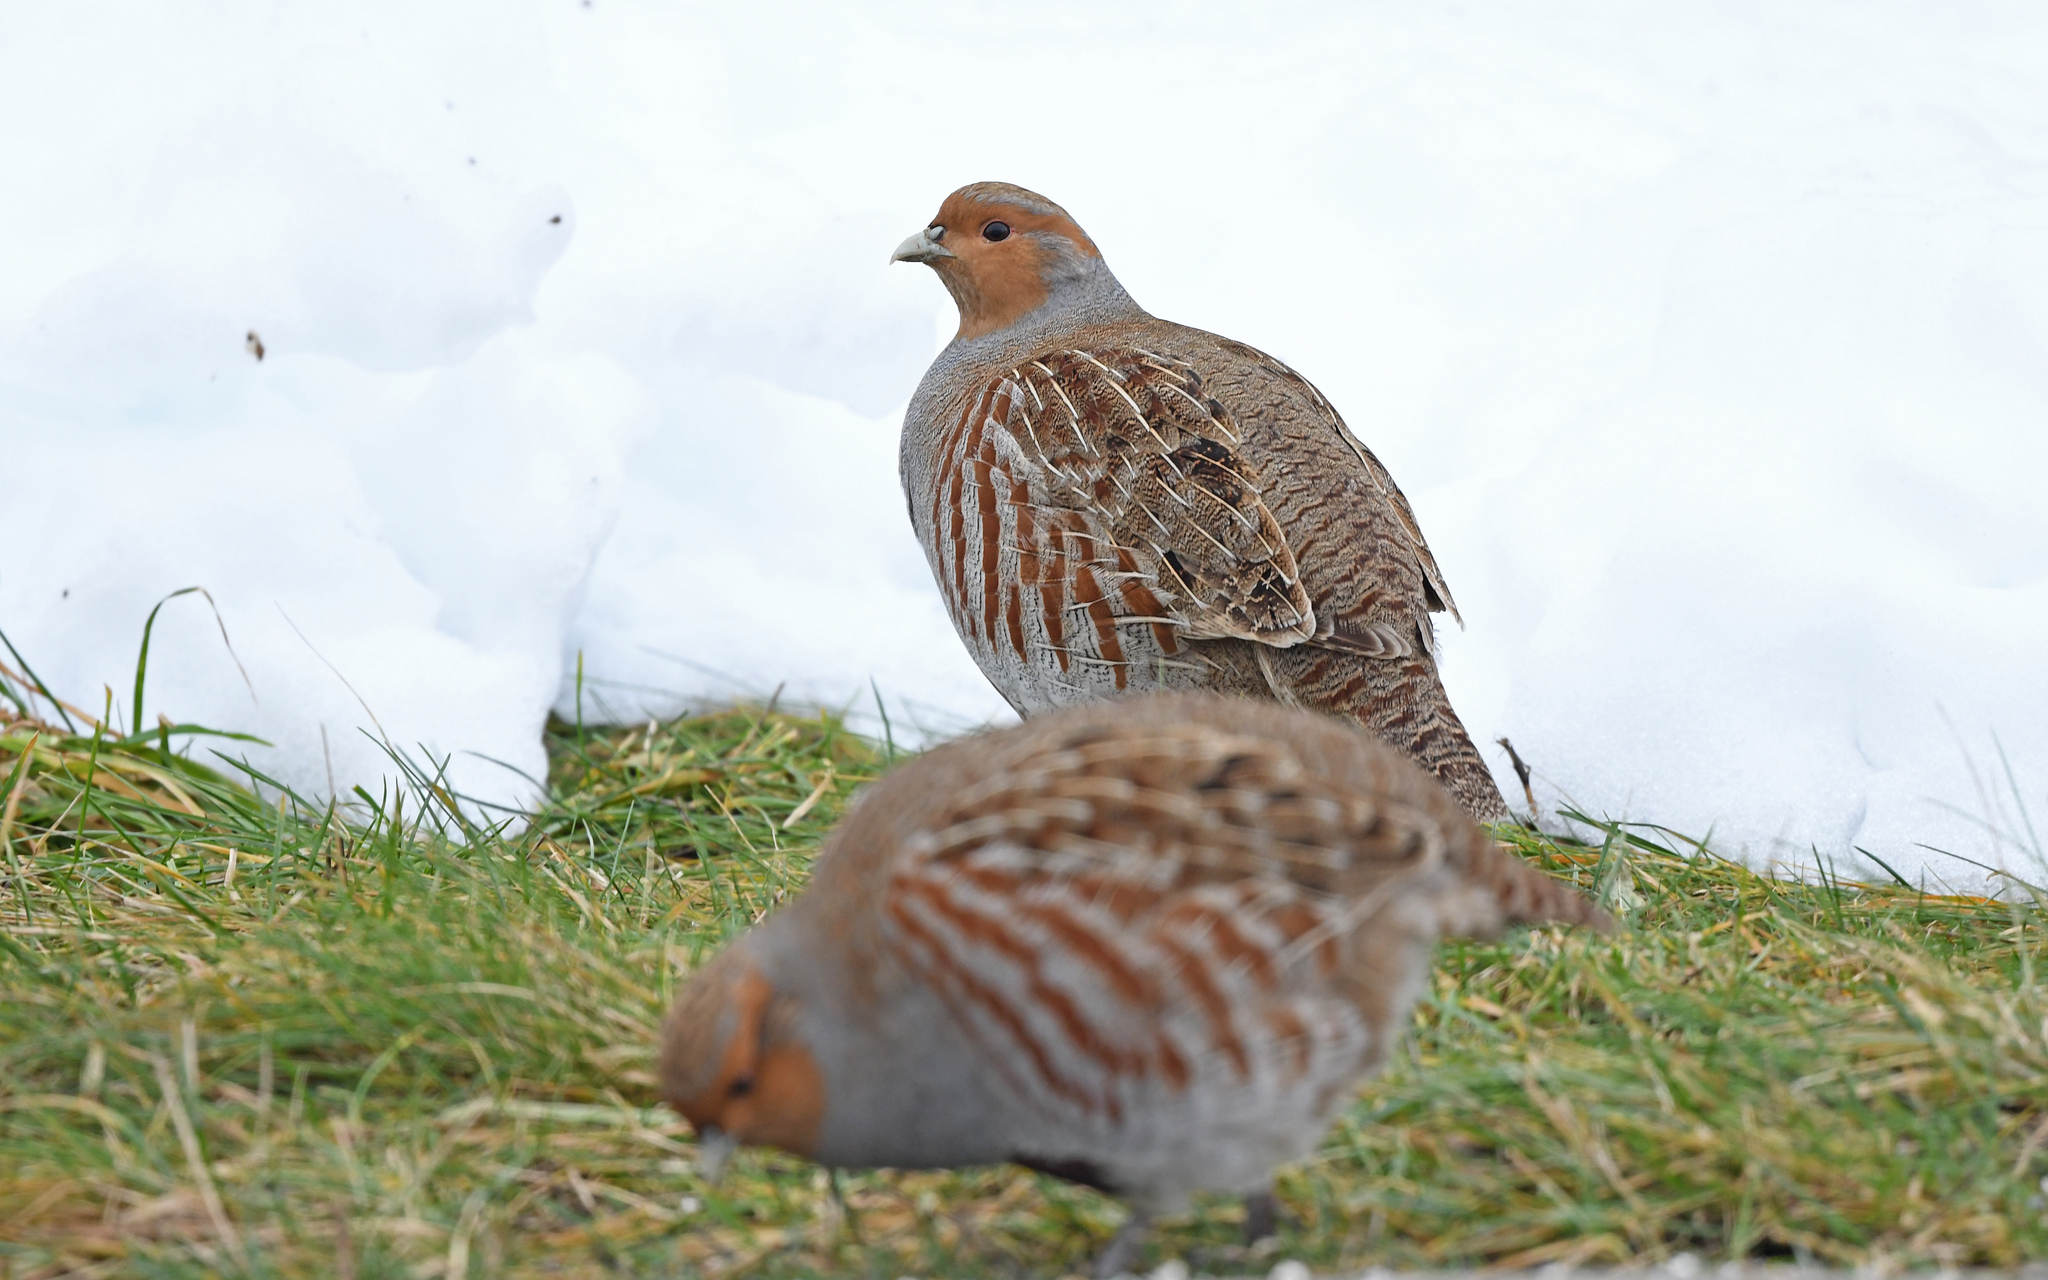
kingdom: Animalia
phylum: Chordata
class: Aves
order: Galliformes
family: Phasianidae
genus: Perdix
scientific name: Perdix perdix
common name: Grey partridge
